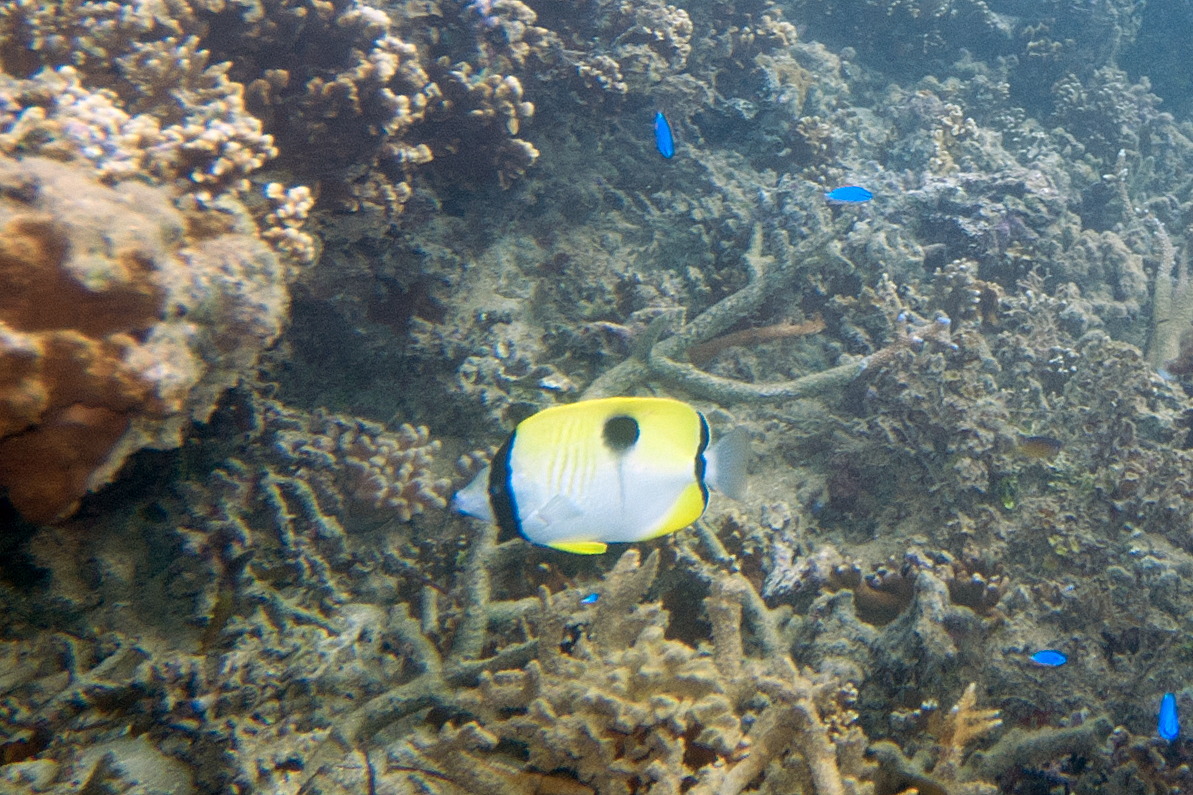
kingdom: Animalia
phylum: Chordata
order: Perciformes
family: Chaetodontidae
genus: Chaetodon
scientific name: Chaetodon unimaculatus
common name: Teardrop butterflyfish
